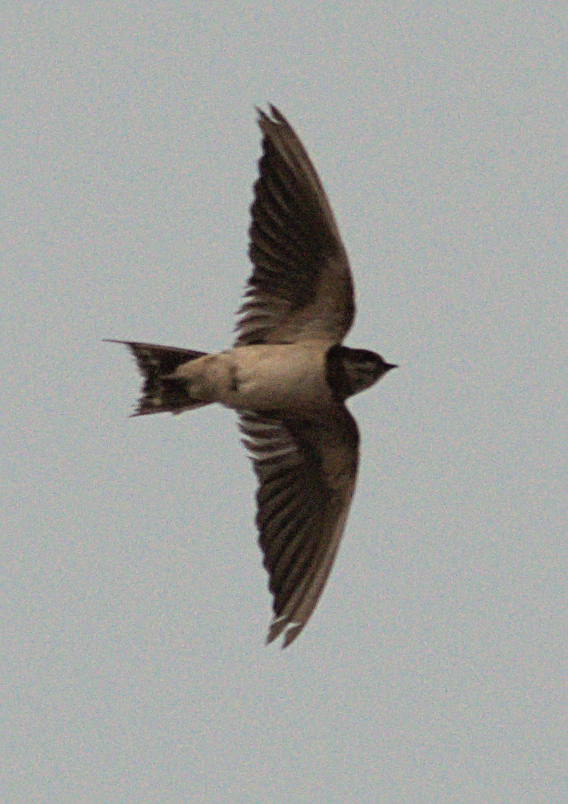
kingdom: Animalia
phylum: Chordata
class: Aves
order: Passeriformes
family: Hirundinidae
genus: Hirundo
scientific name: Hirundo rustica
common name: Barn swallow
